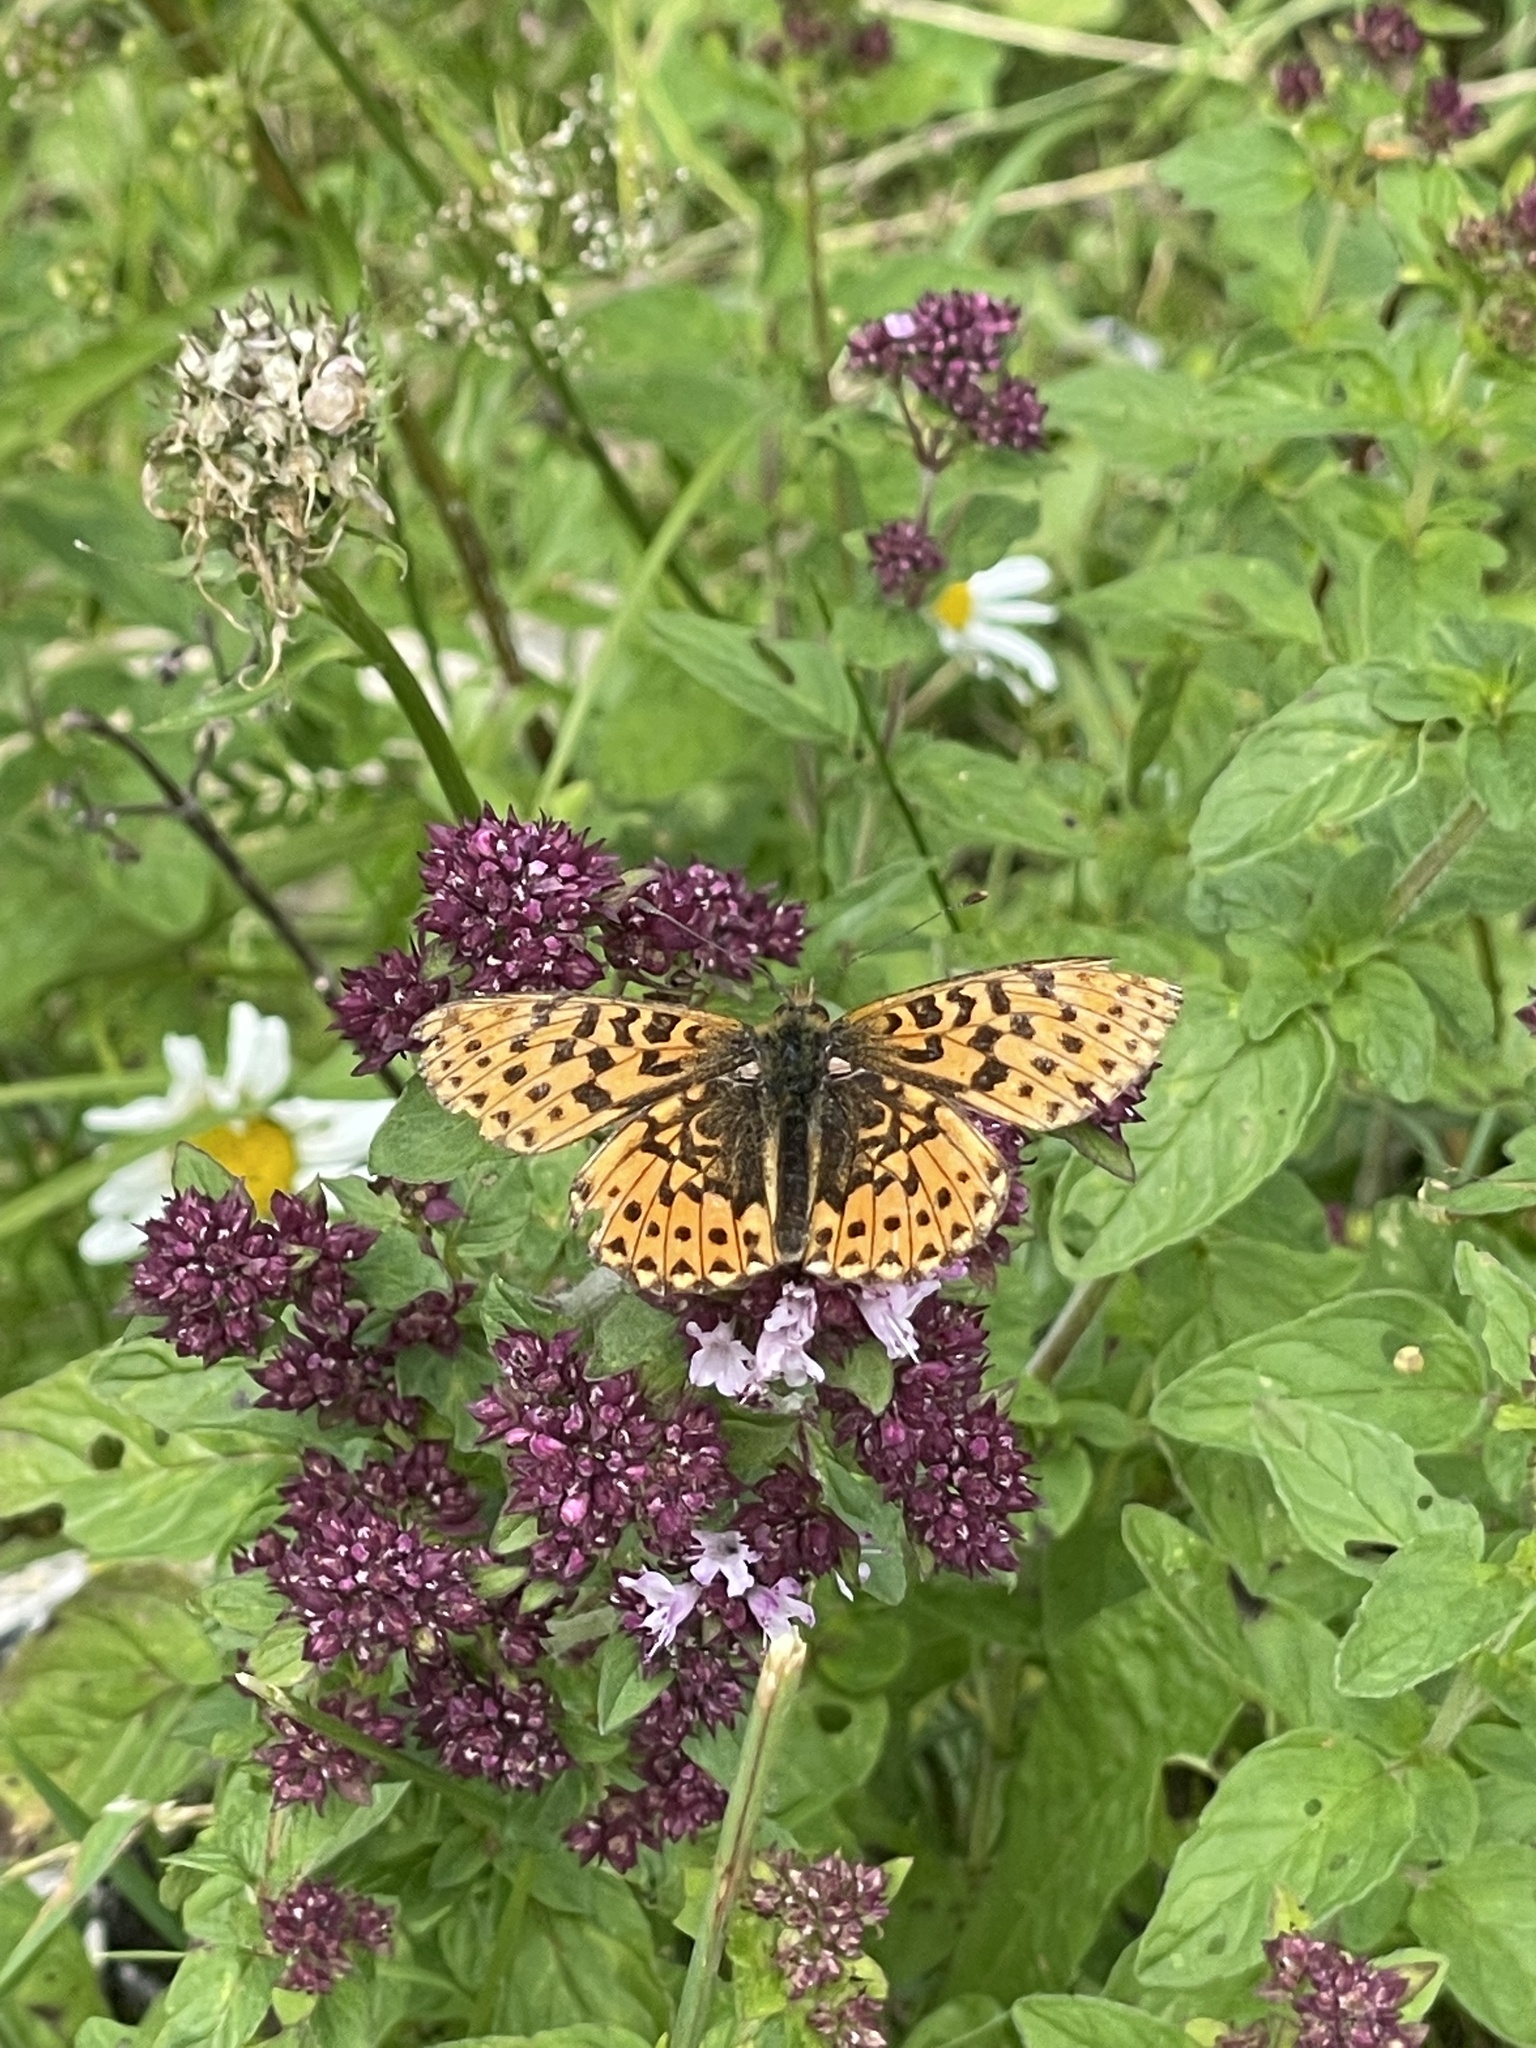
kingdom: Animalia
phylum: Arthropoda
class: Insecta
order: Lepidoptera
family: Nymphalidae
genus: Clossiana
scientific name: Clossiana euphrosyne
